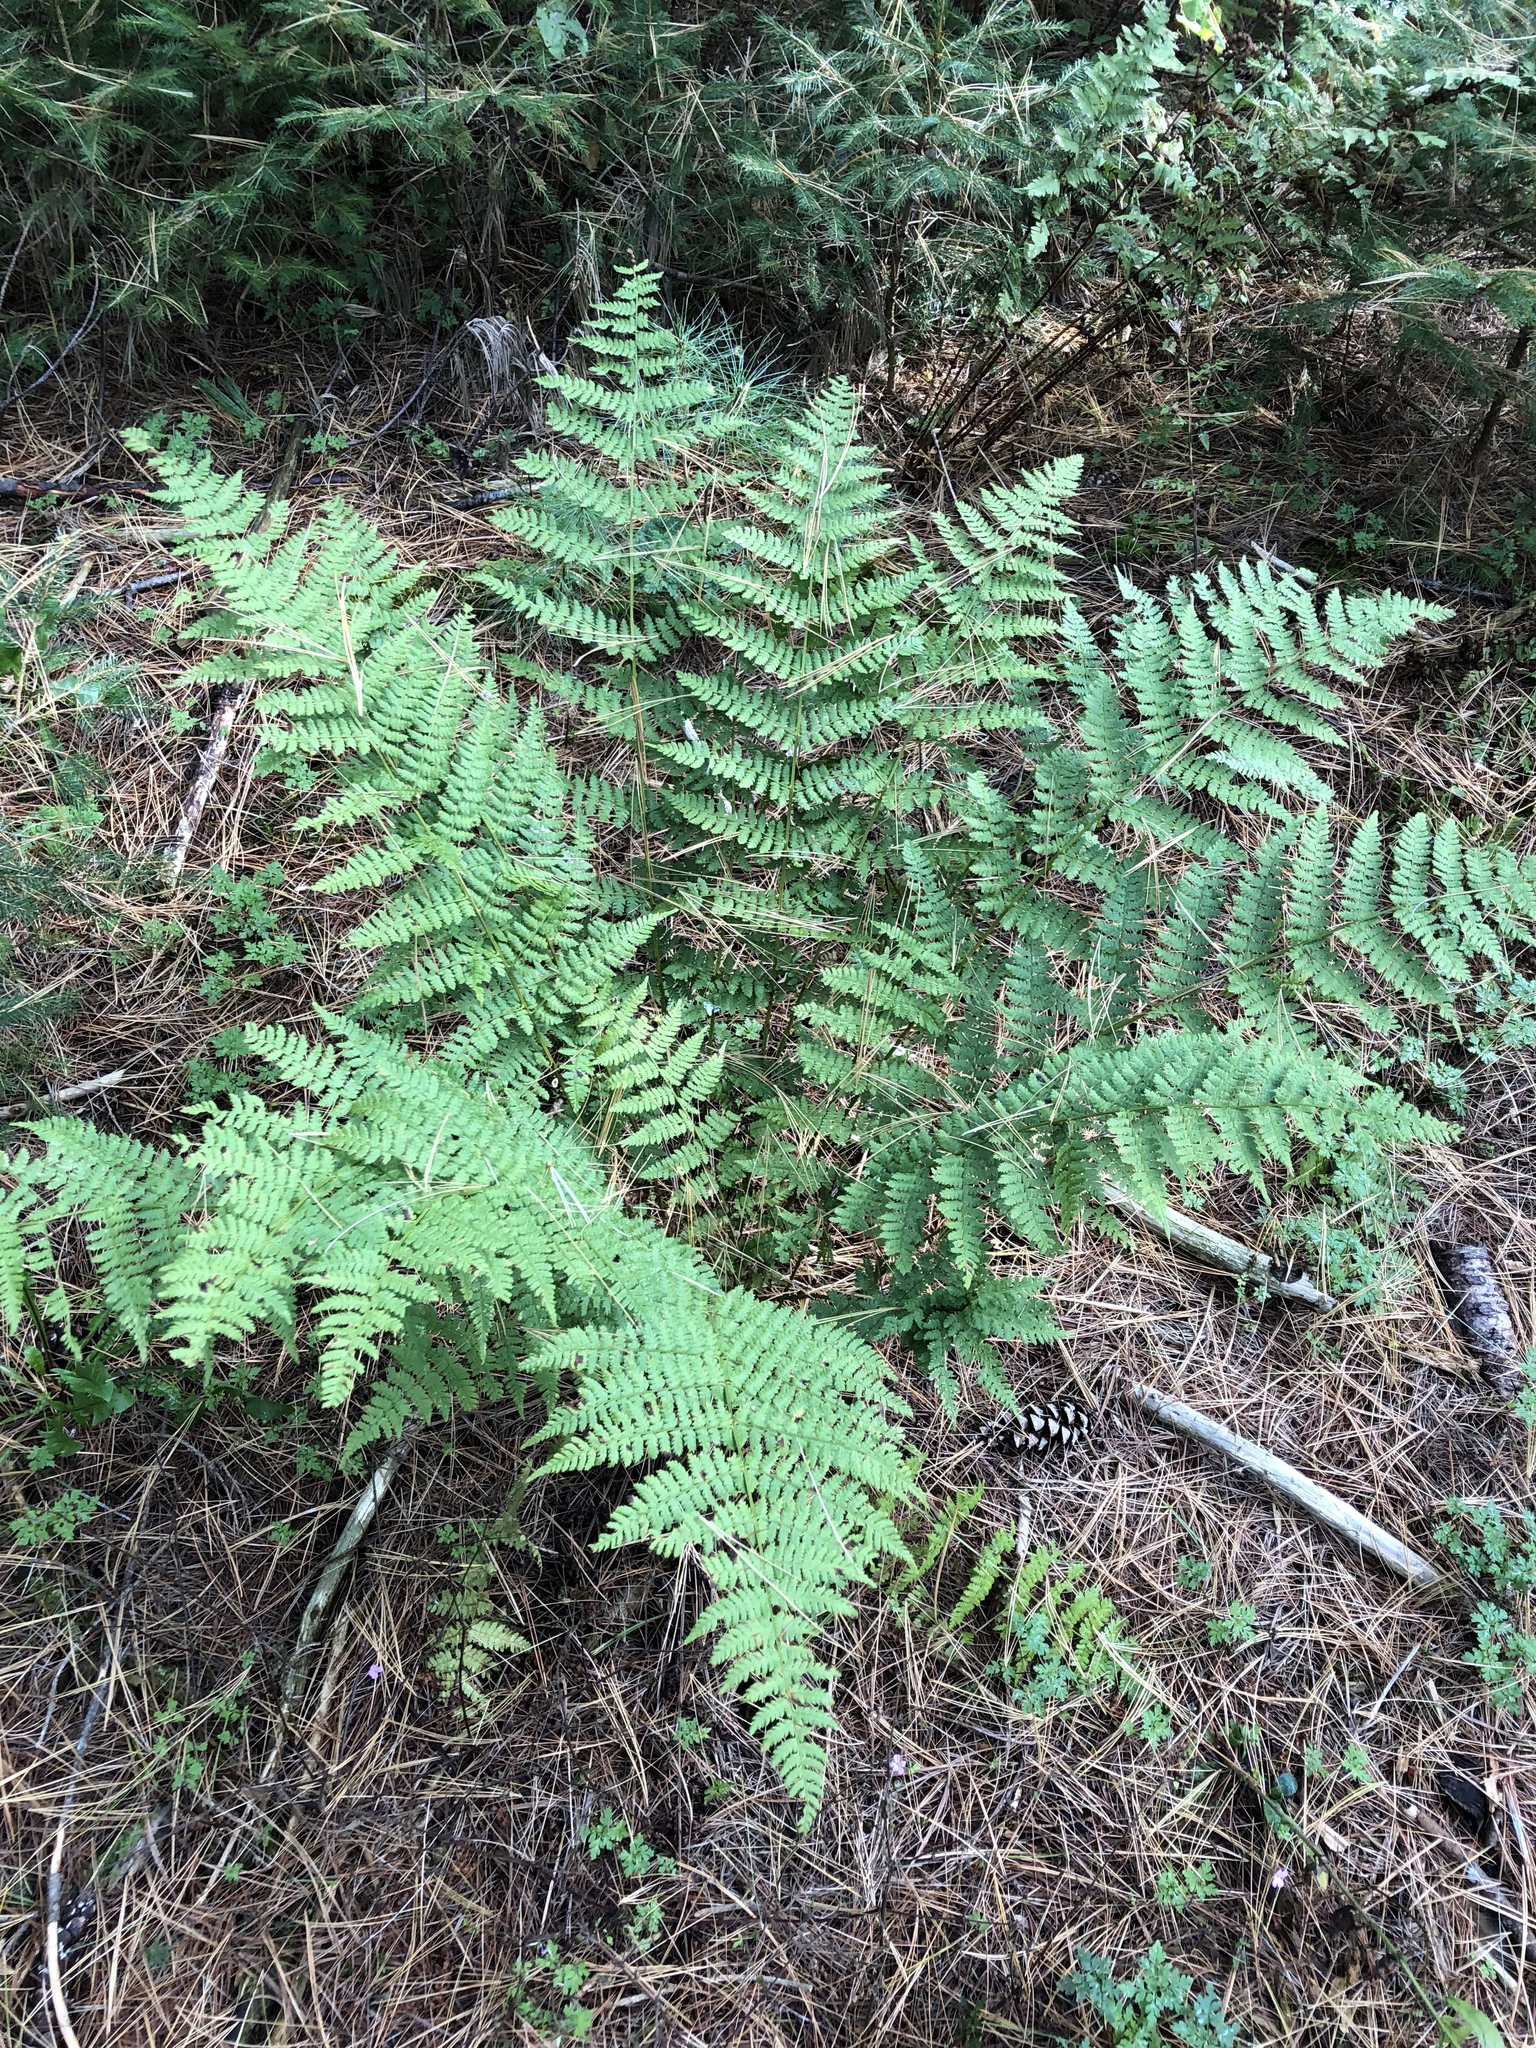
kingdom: Plantae
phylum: Tracheophyta
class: Polypodiopsida
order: Polypodiales
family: Dryopteridaceae
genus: Dryopteris
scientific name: Dryopteris intermedia
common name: Evergreen wood fern
